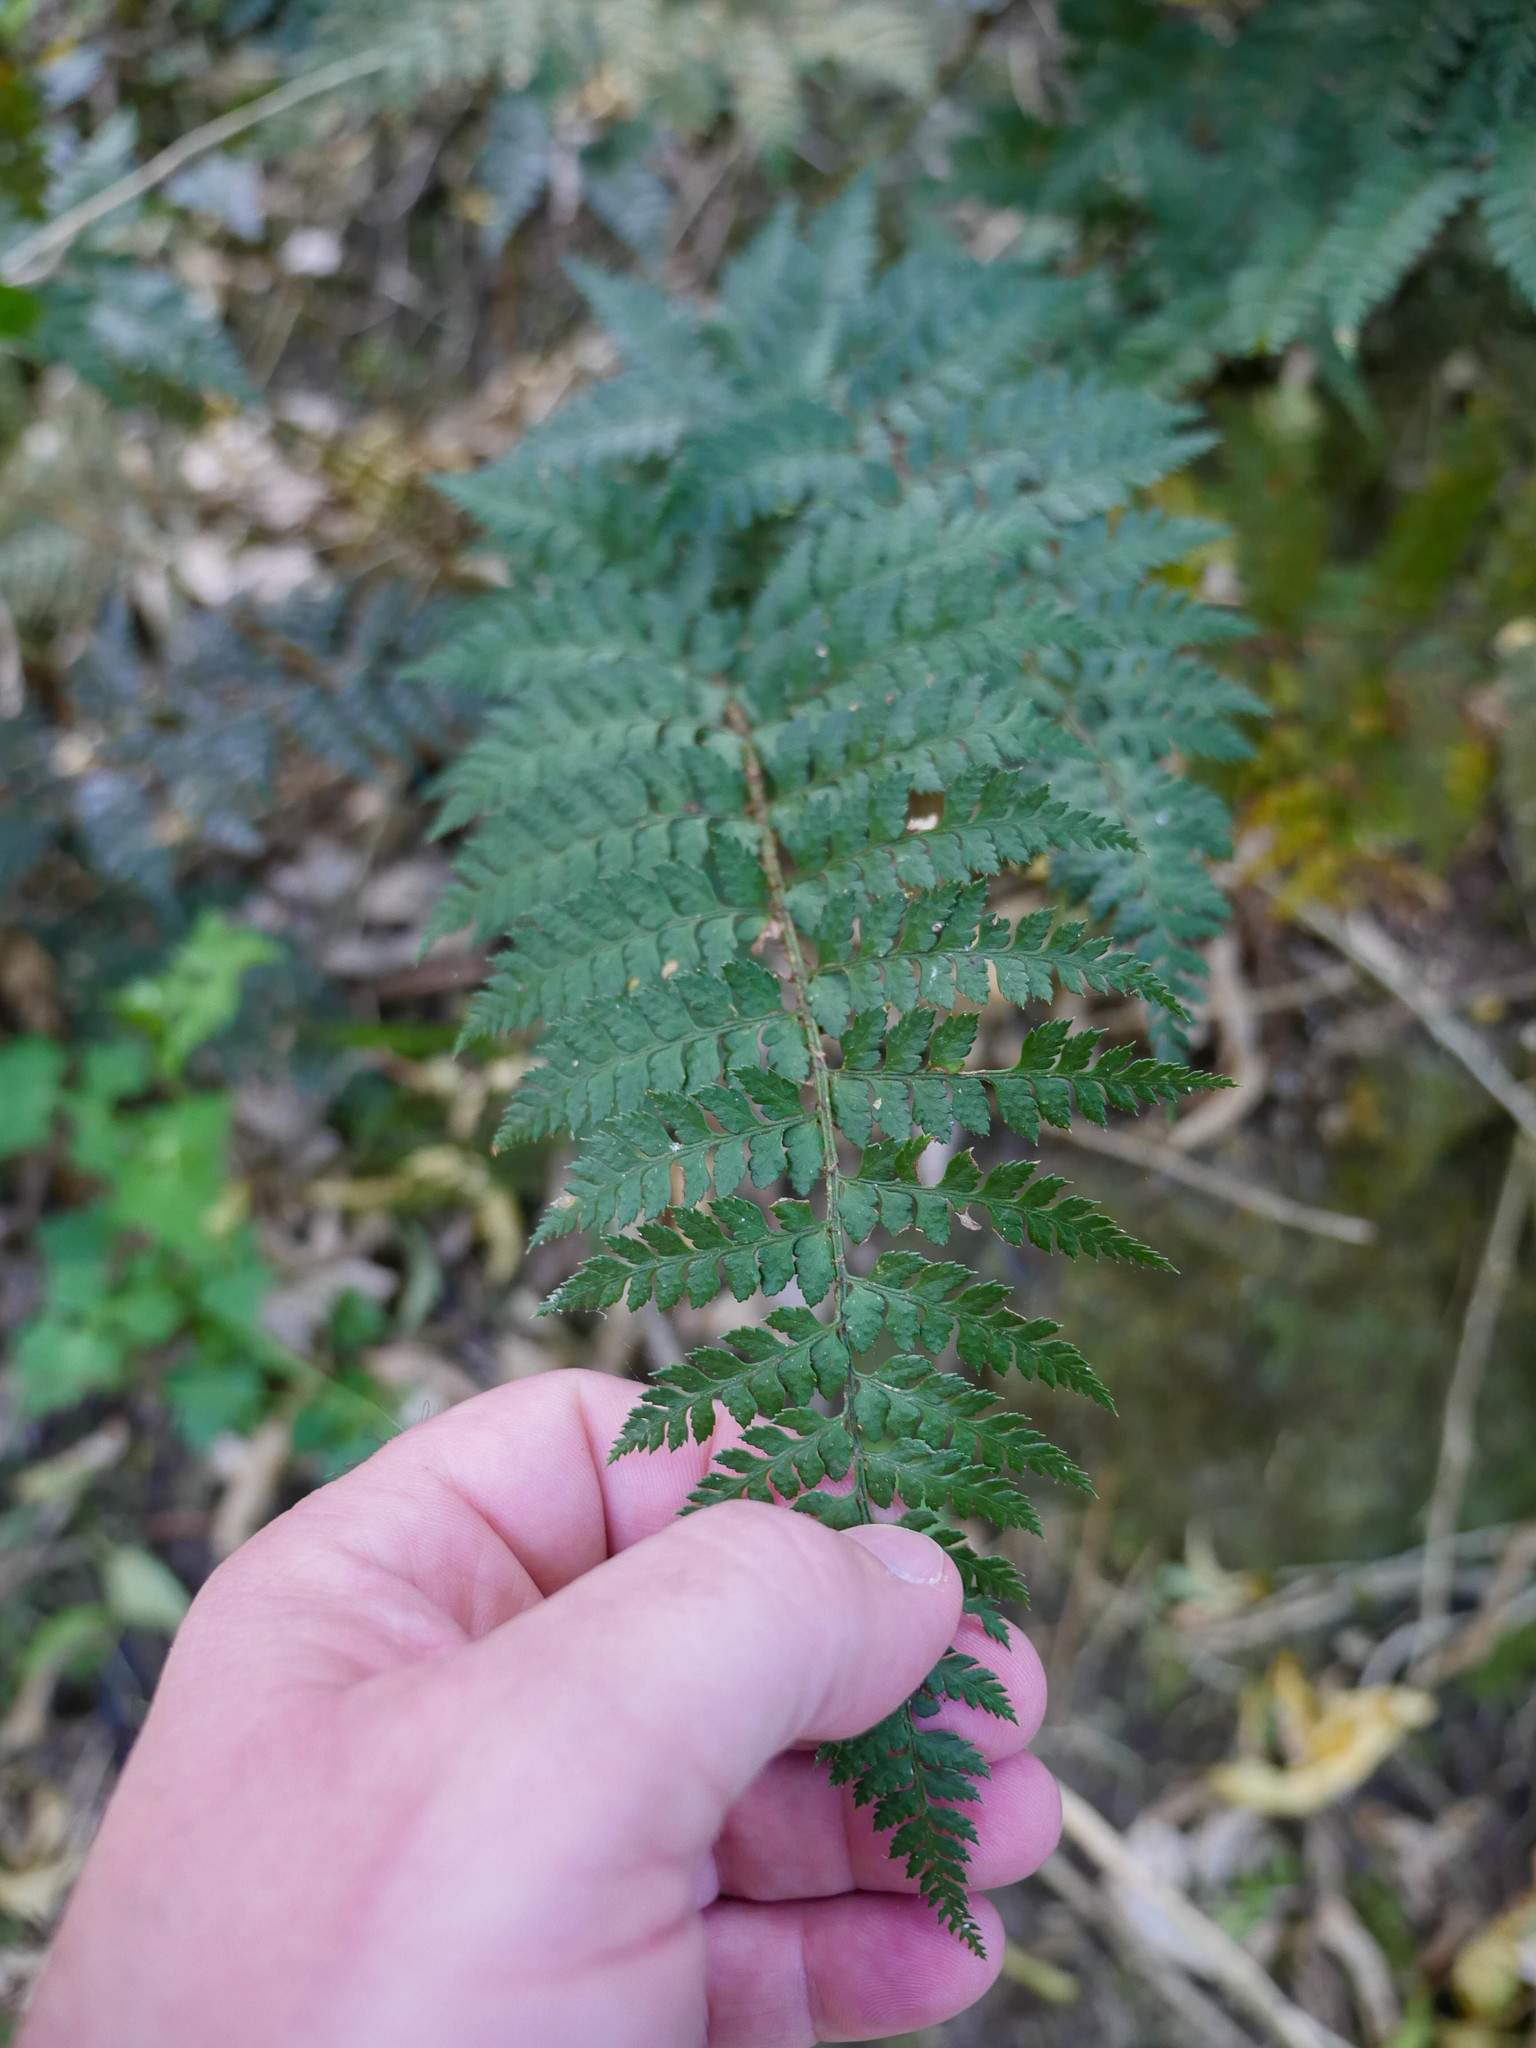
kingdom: Plantae
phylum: Tracheophyta
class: Polypodiopsida
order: Polypodiales
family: Dryopteridaceae
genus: Polystichum
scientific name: Polystichum oculatum
